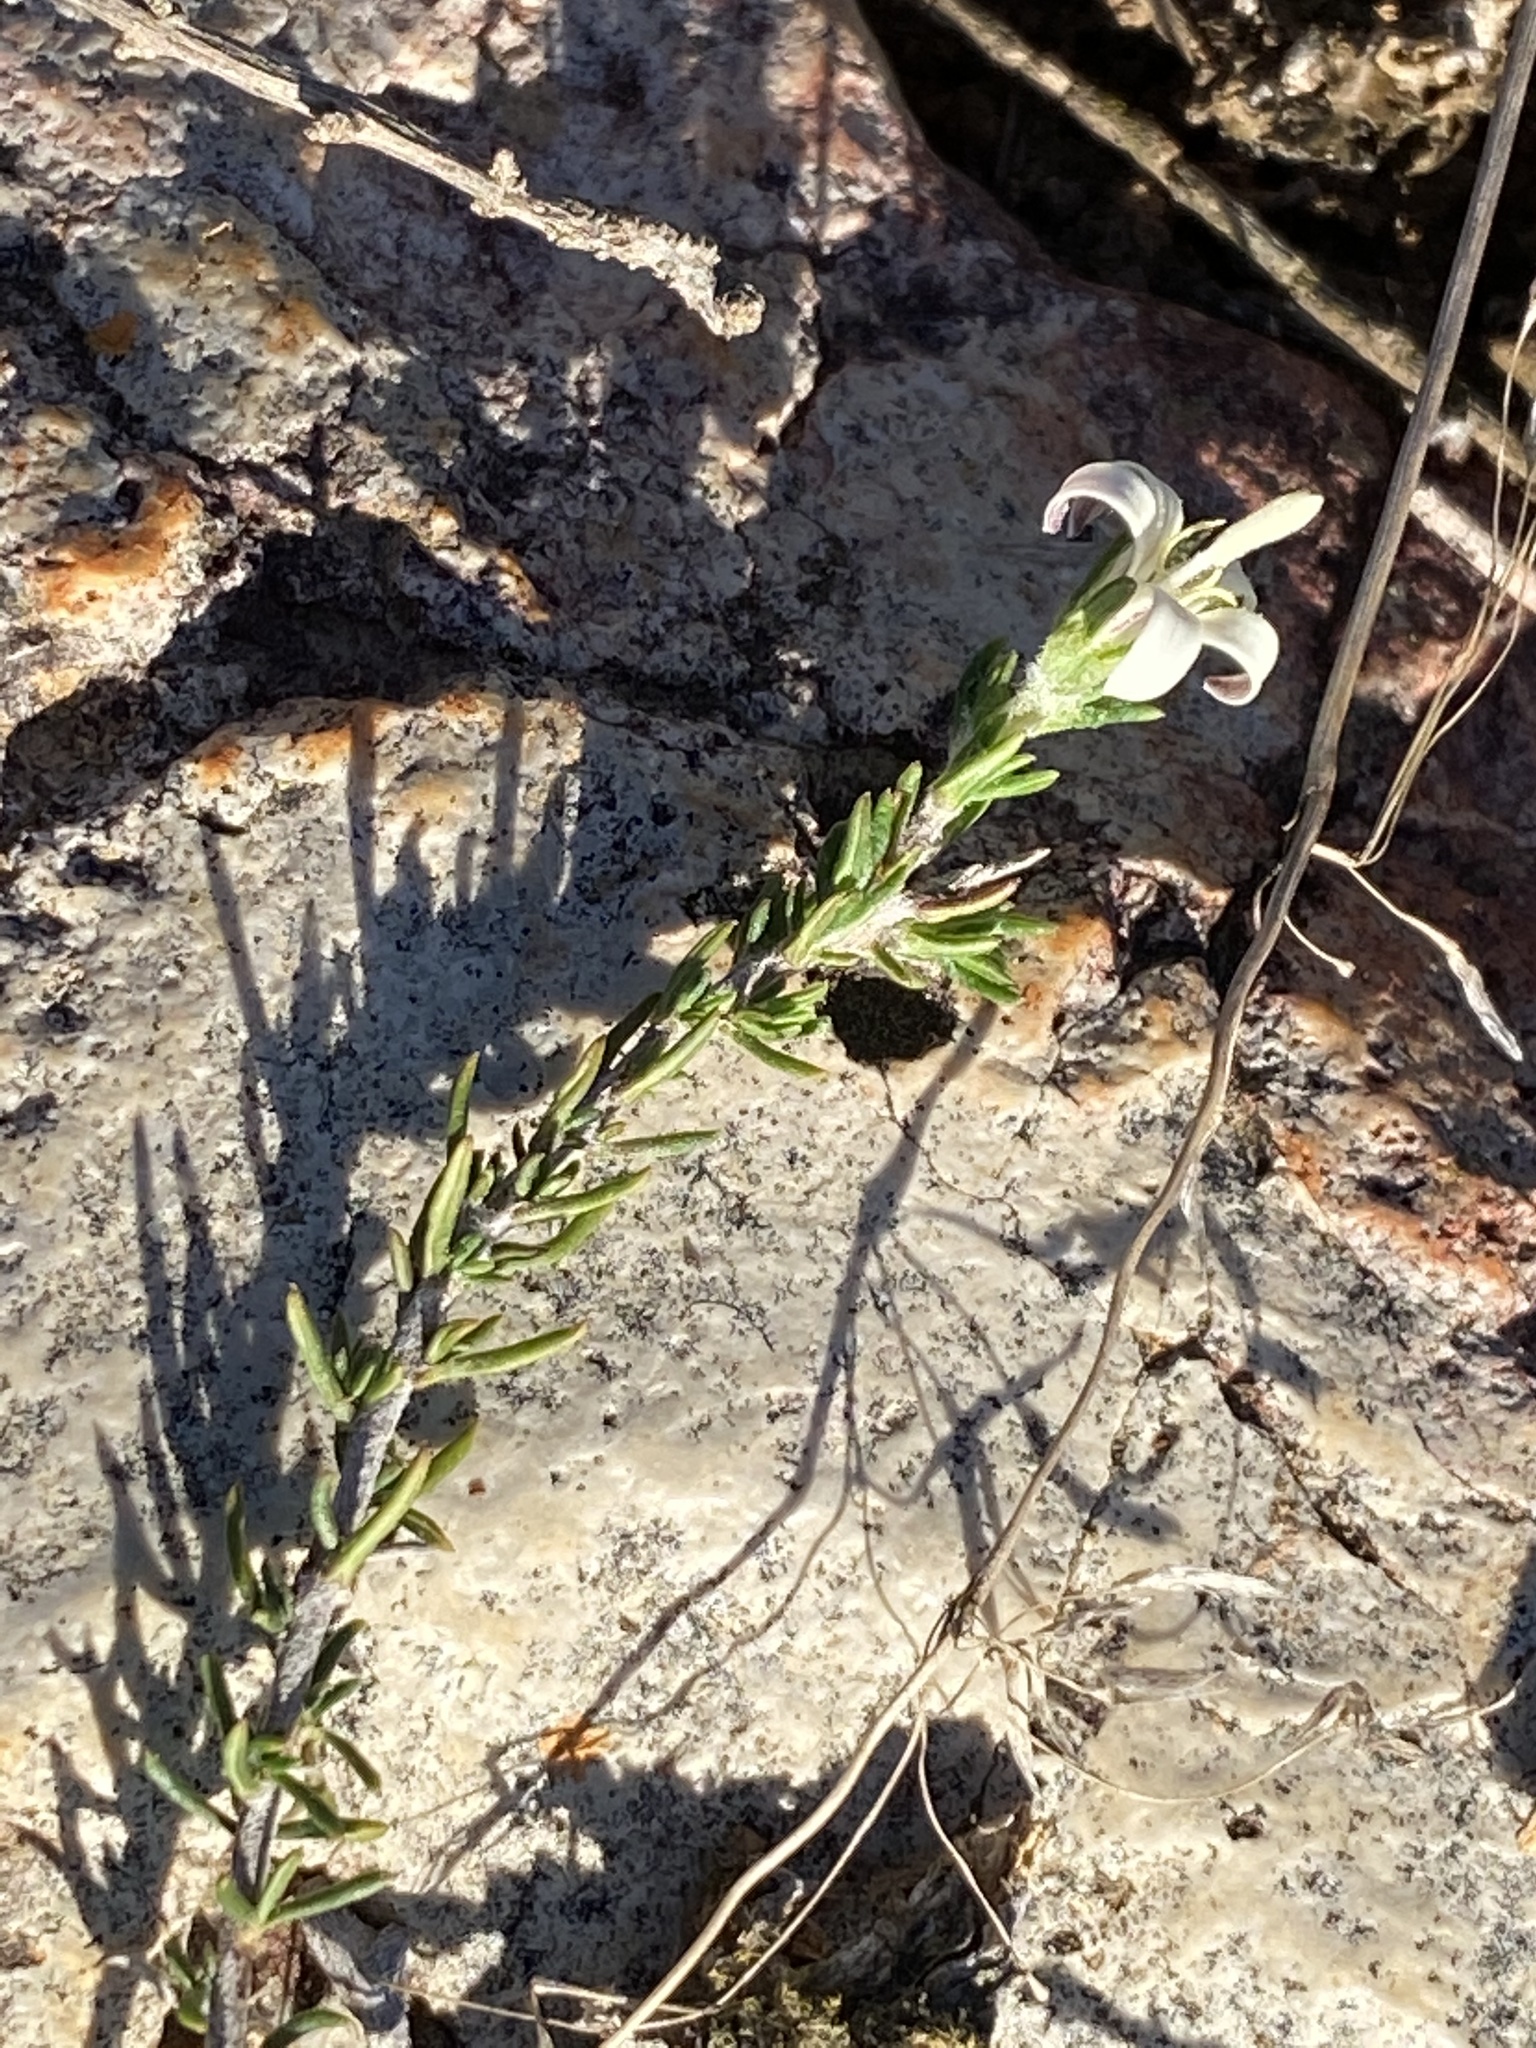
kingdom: Plantae
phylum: Tracheophyta
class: Magnoliopsida
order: Asterales
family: Campanulaceae
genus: Wahlenbergia
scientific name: Wahlenbergia cinerea
